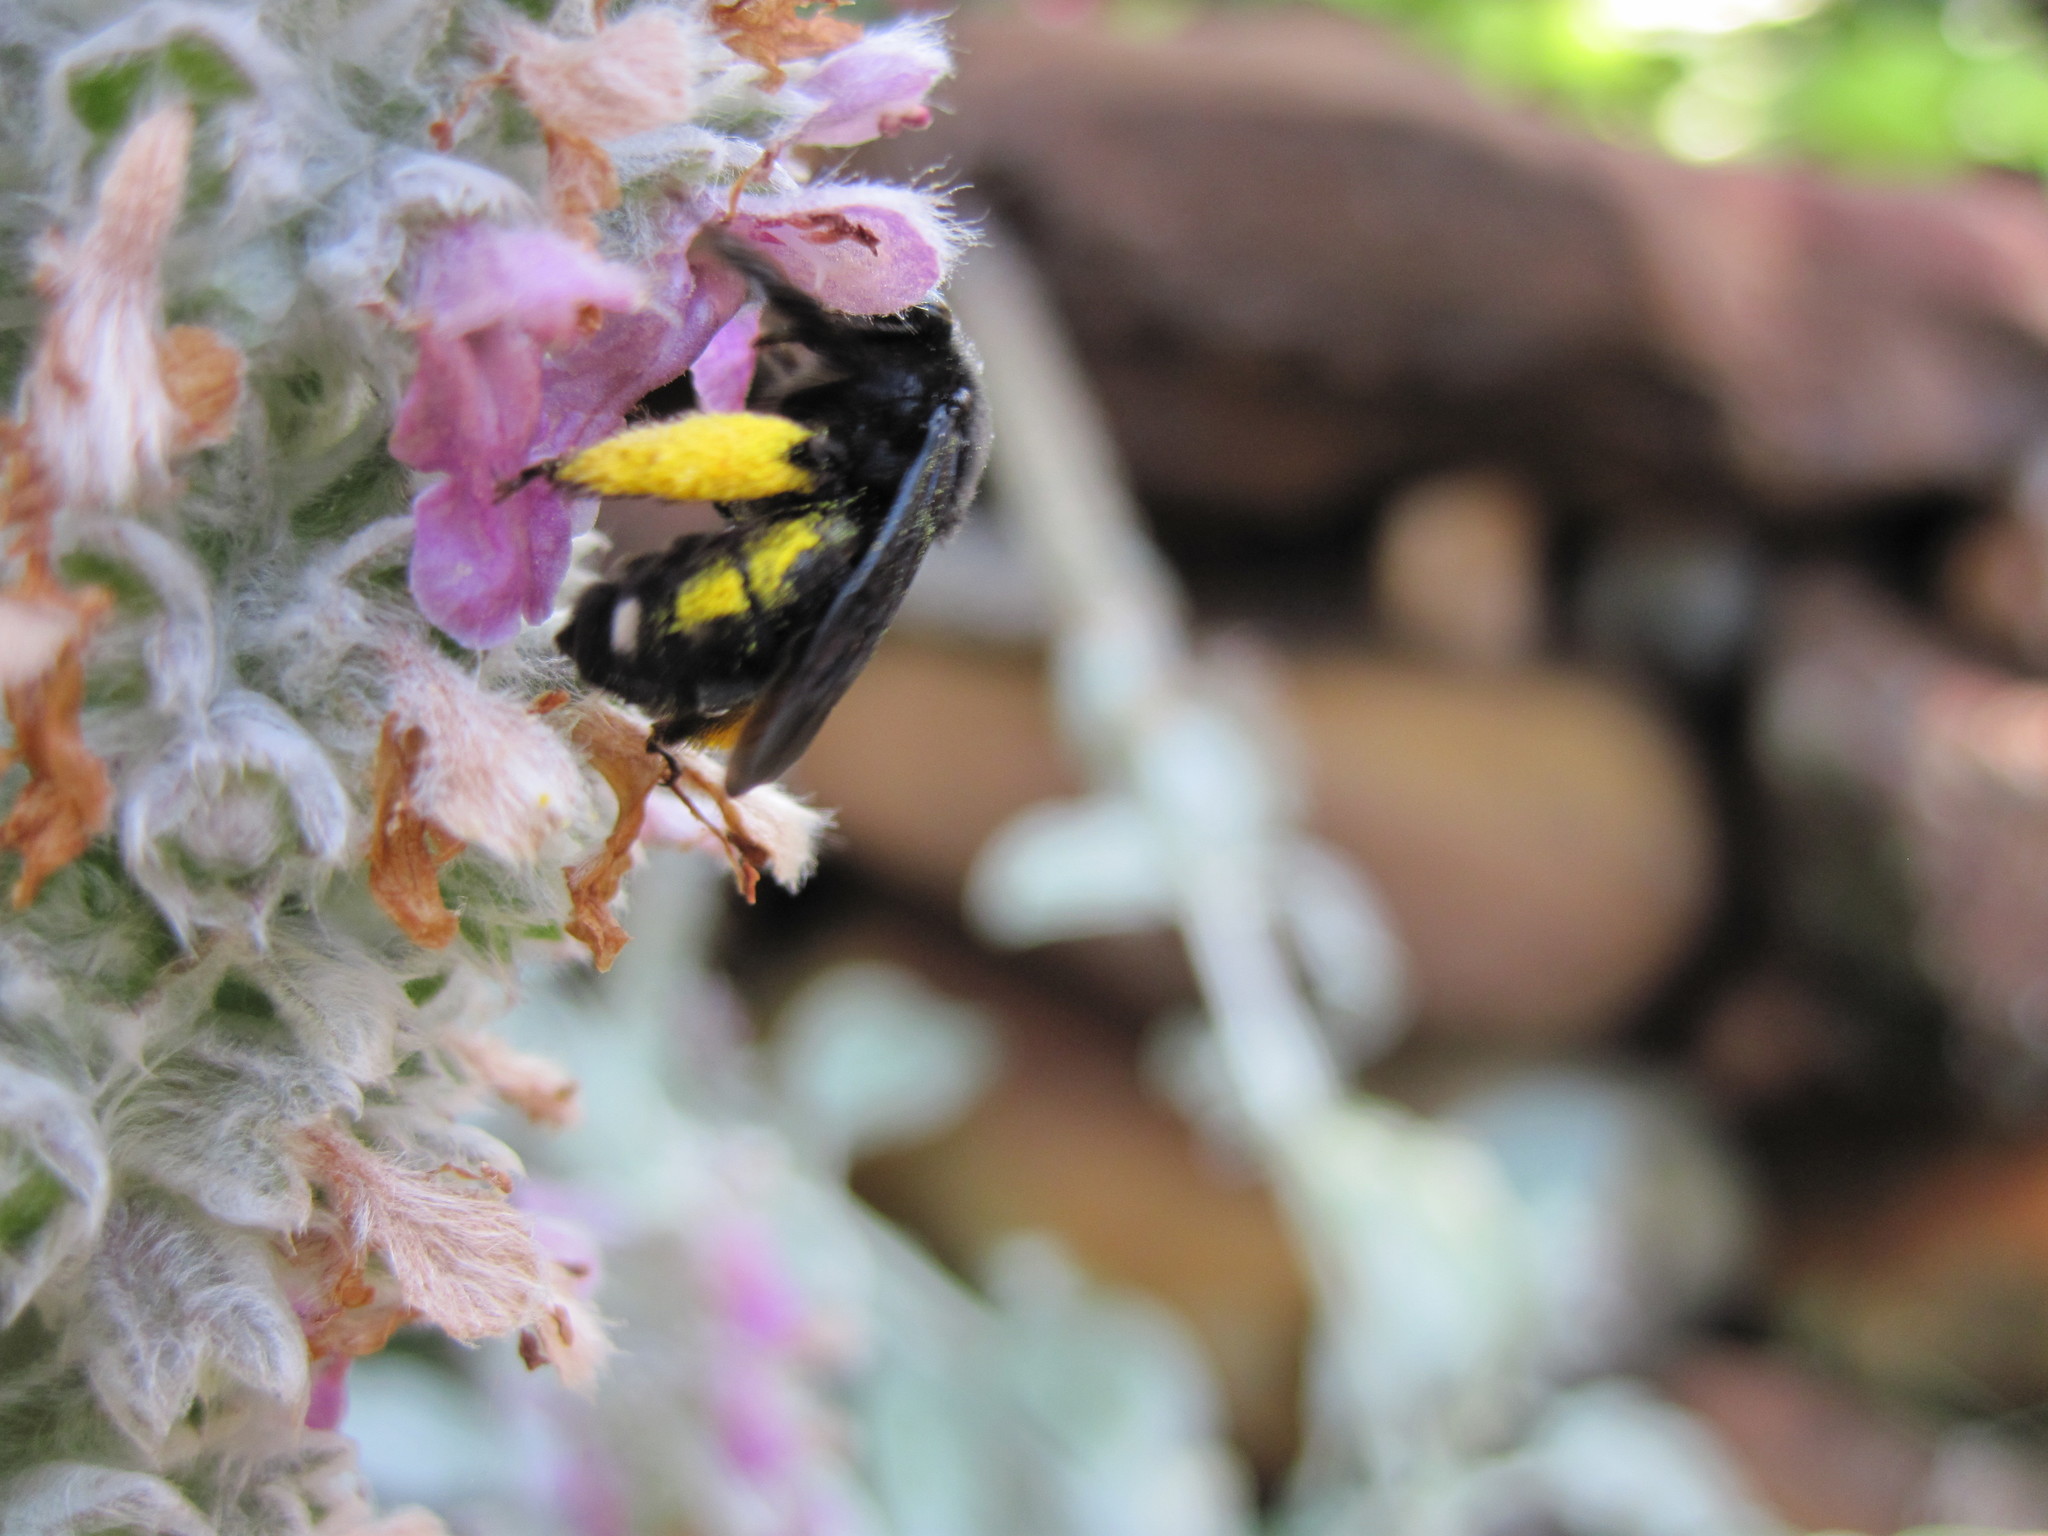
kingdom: Animalia
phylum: Arthropoda
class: Insecta
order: Hymenoptera
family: Apidae
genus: Melissodes
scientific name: Melissodes bimaculatus
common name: Two-spotted long-horned bee
